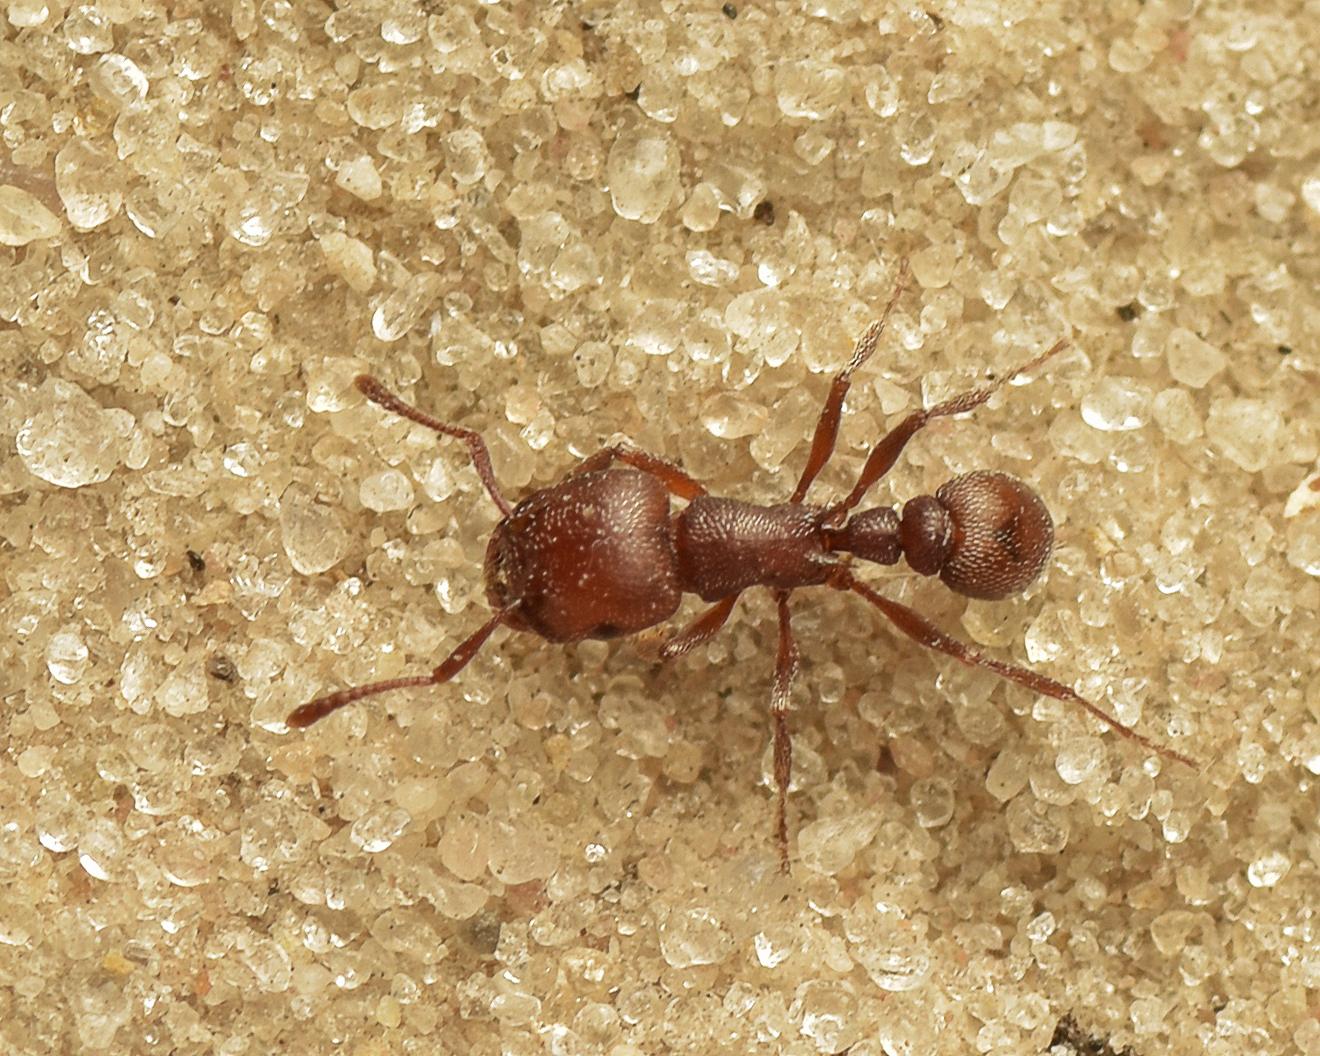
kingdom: Animalia
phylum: Arthropoda
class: Insecta
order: Hymenoptera
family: Formicidae
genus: Tetramorium
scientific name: Tetramorium setuliferum
